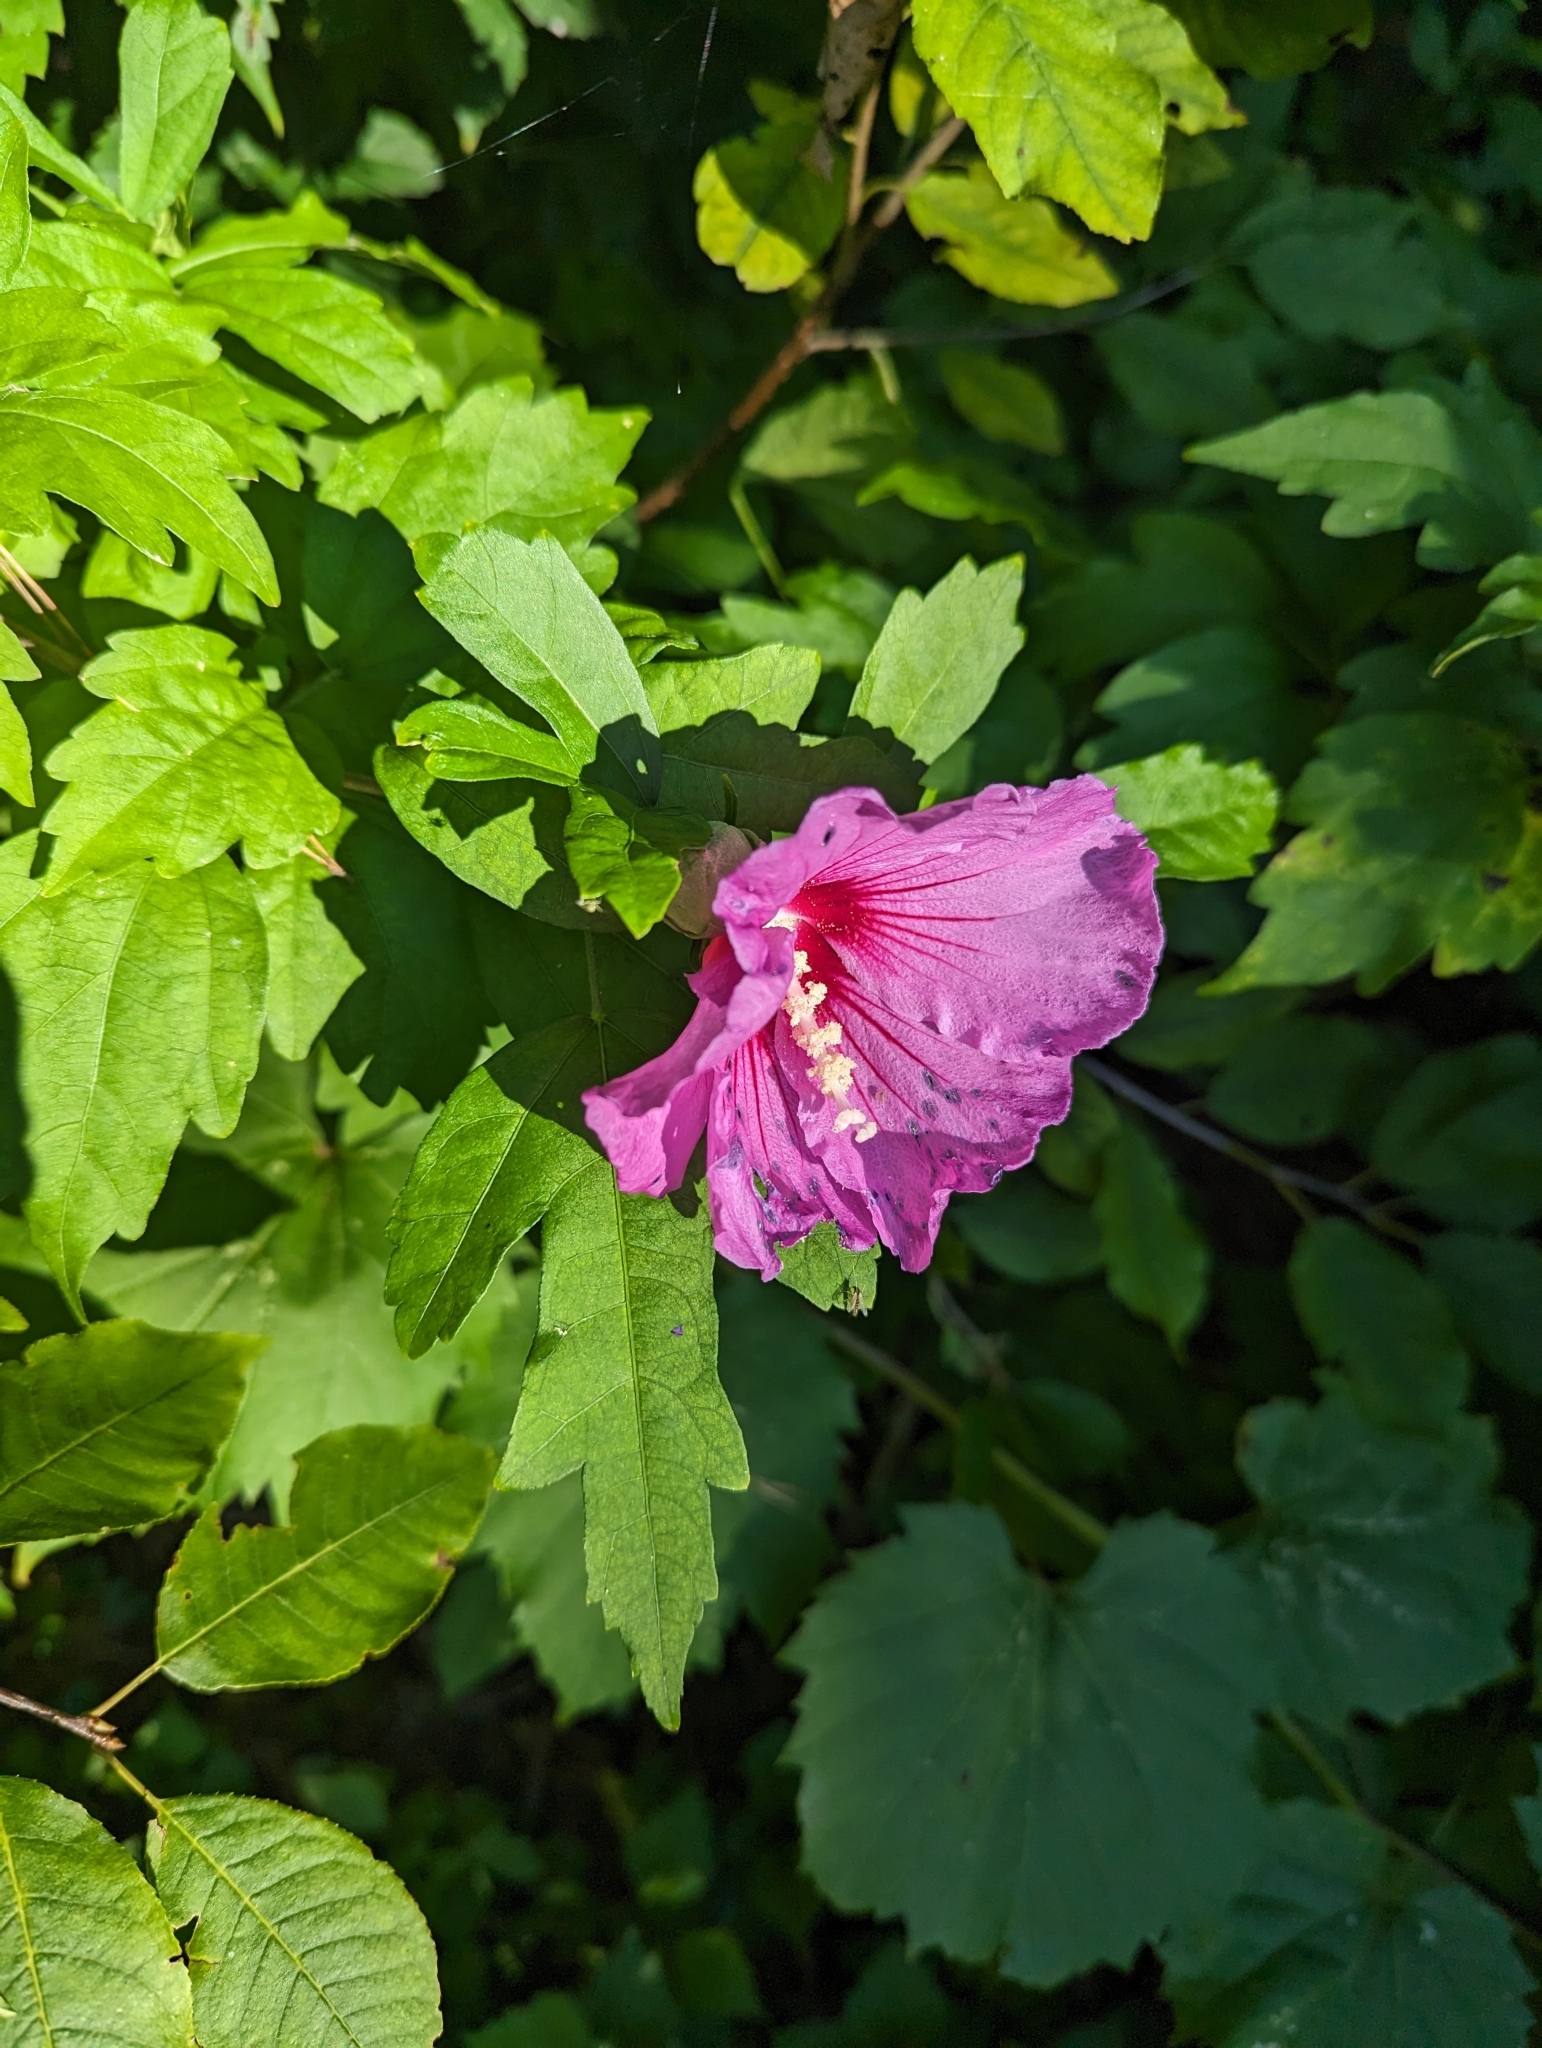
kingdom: Plantae
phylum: Tracheophyta
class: Magnoliopsida
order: Malvales
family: Malvaceae
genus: Hibiscus
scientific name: Hibiscus syriacus
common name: Syrian ketmia
